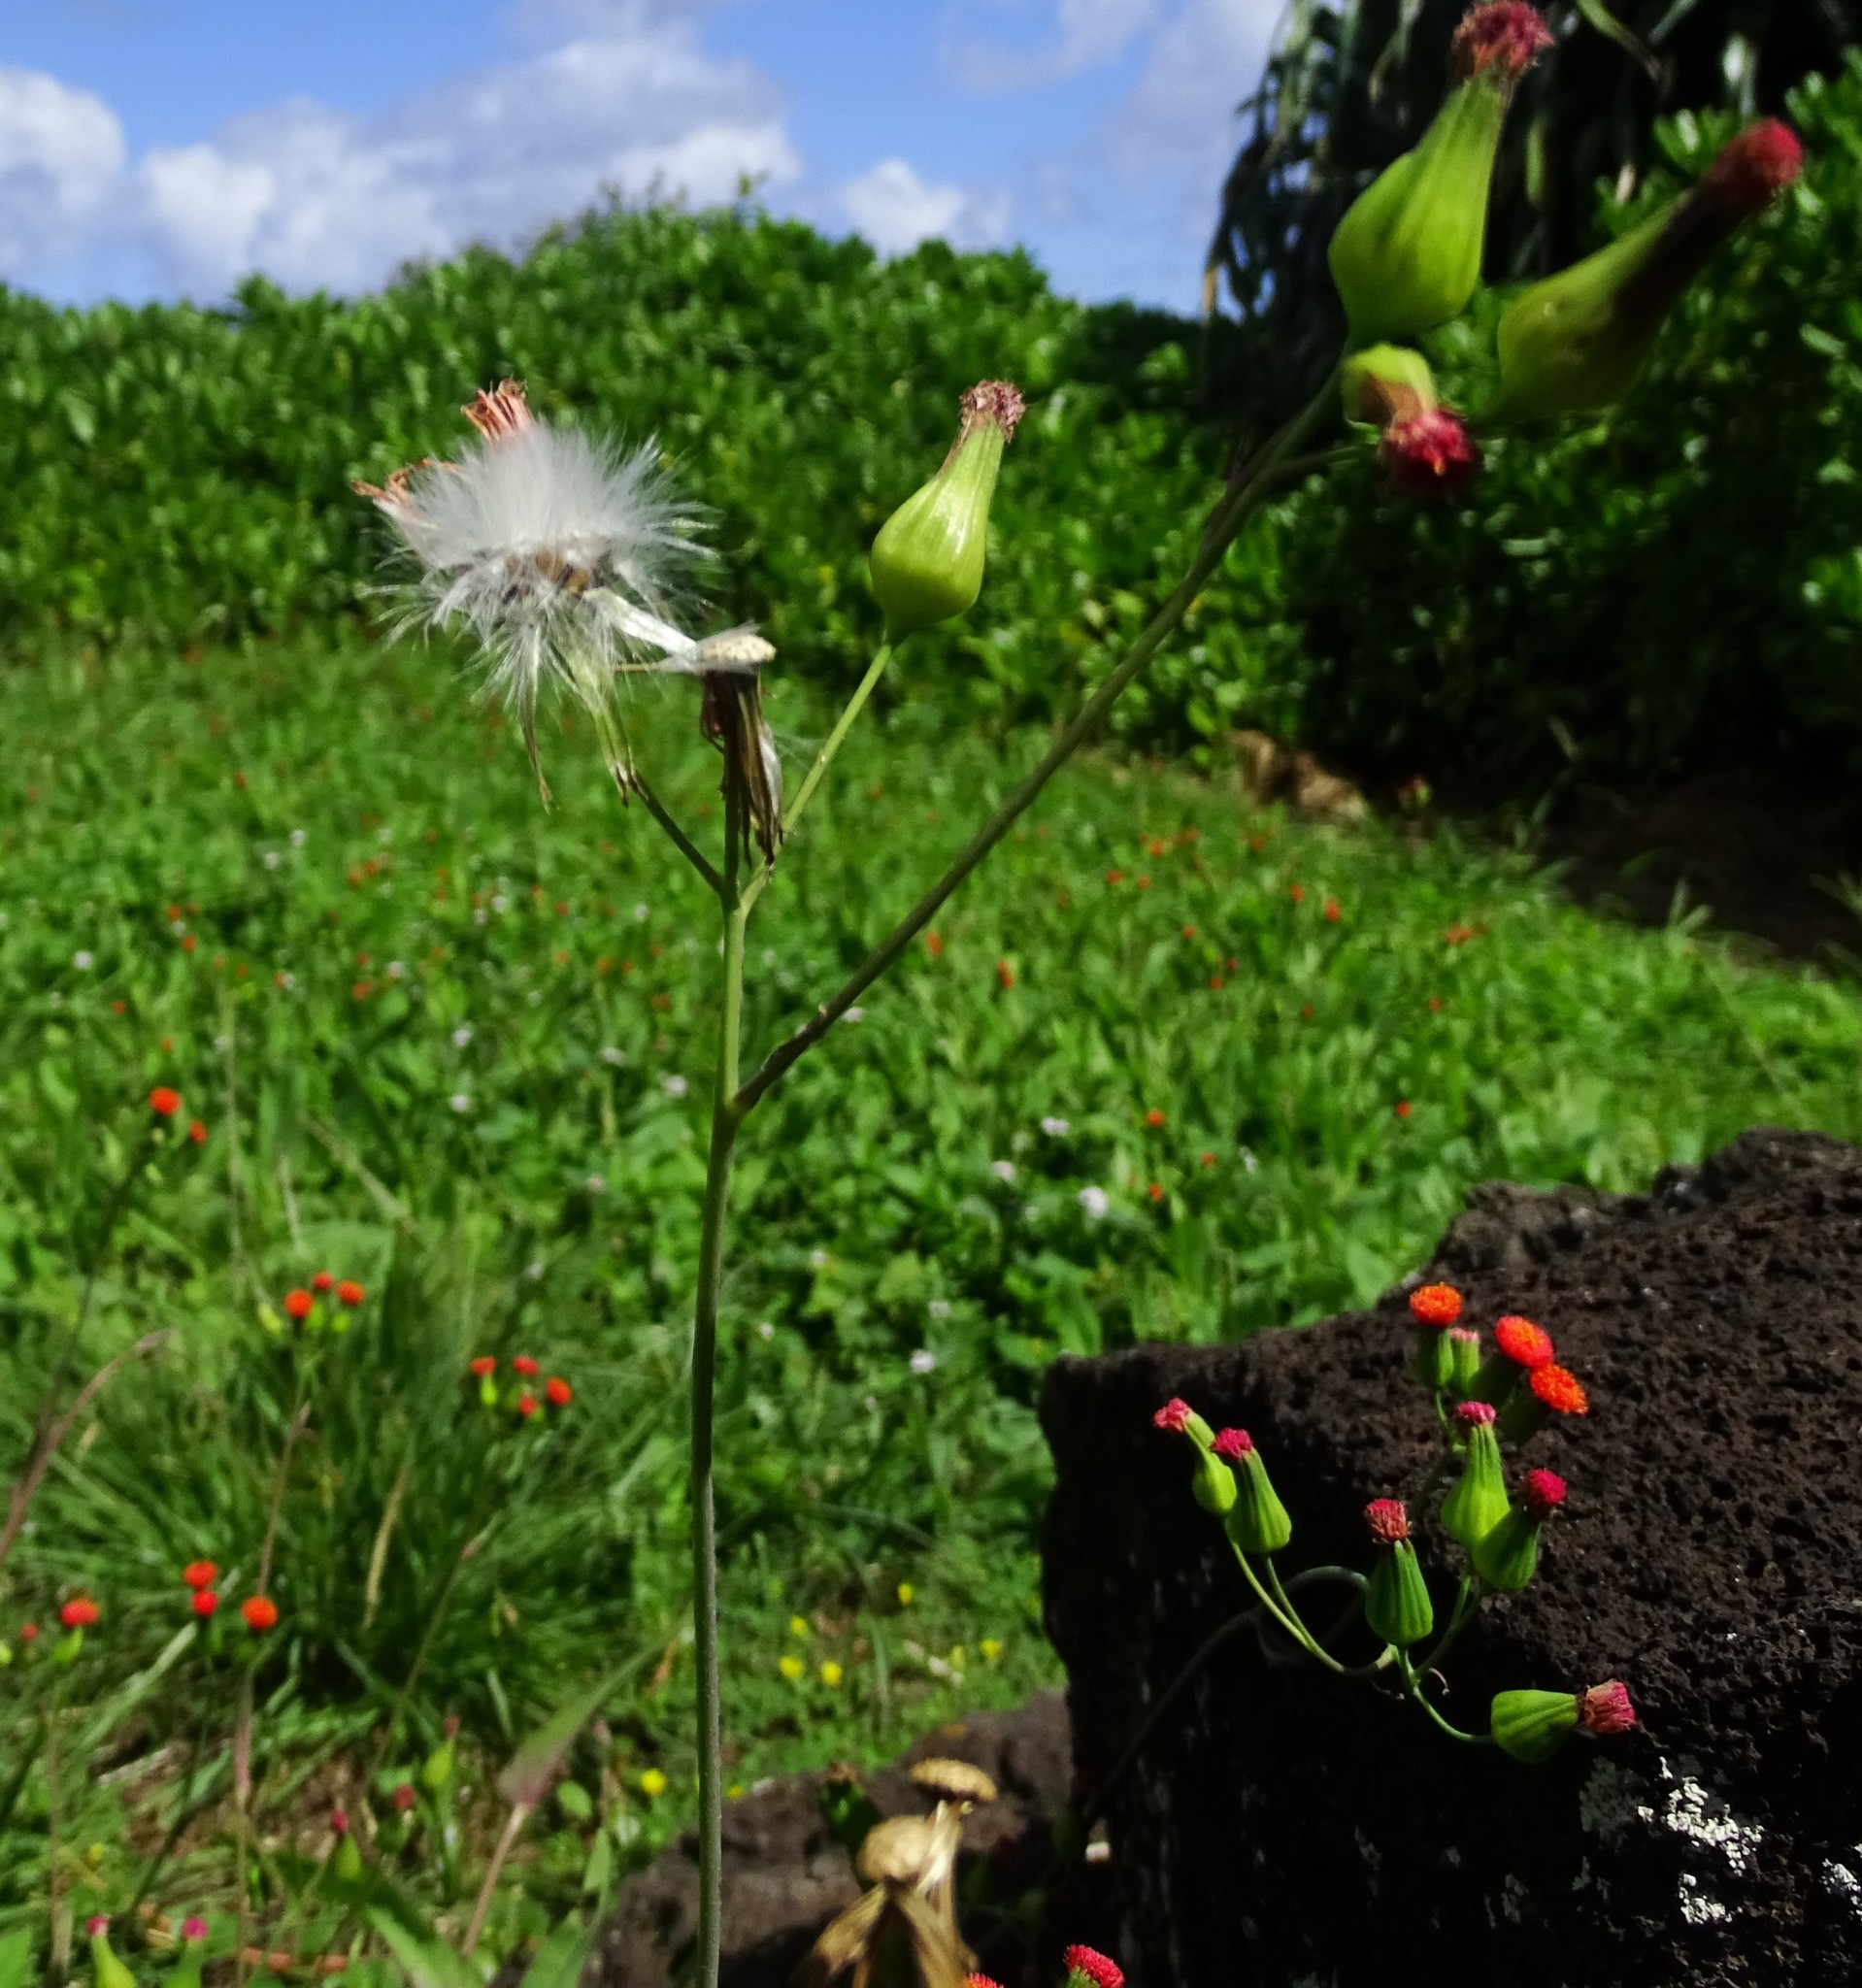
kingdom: Plantae
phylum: Tracheophyta
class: Magnoliopsida
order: Asterales
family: Asteraceae
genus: Emilia
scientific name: Emilia fosbergii
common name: Florida tasselflower
